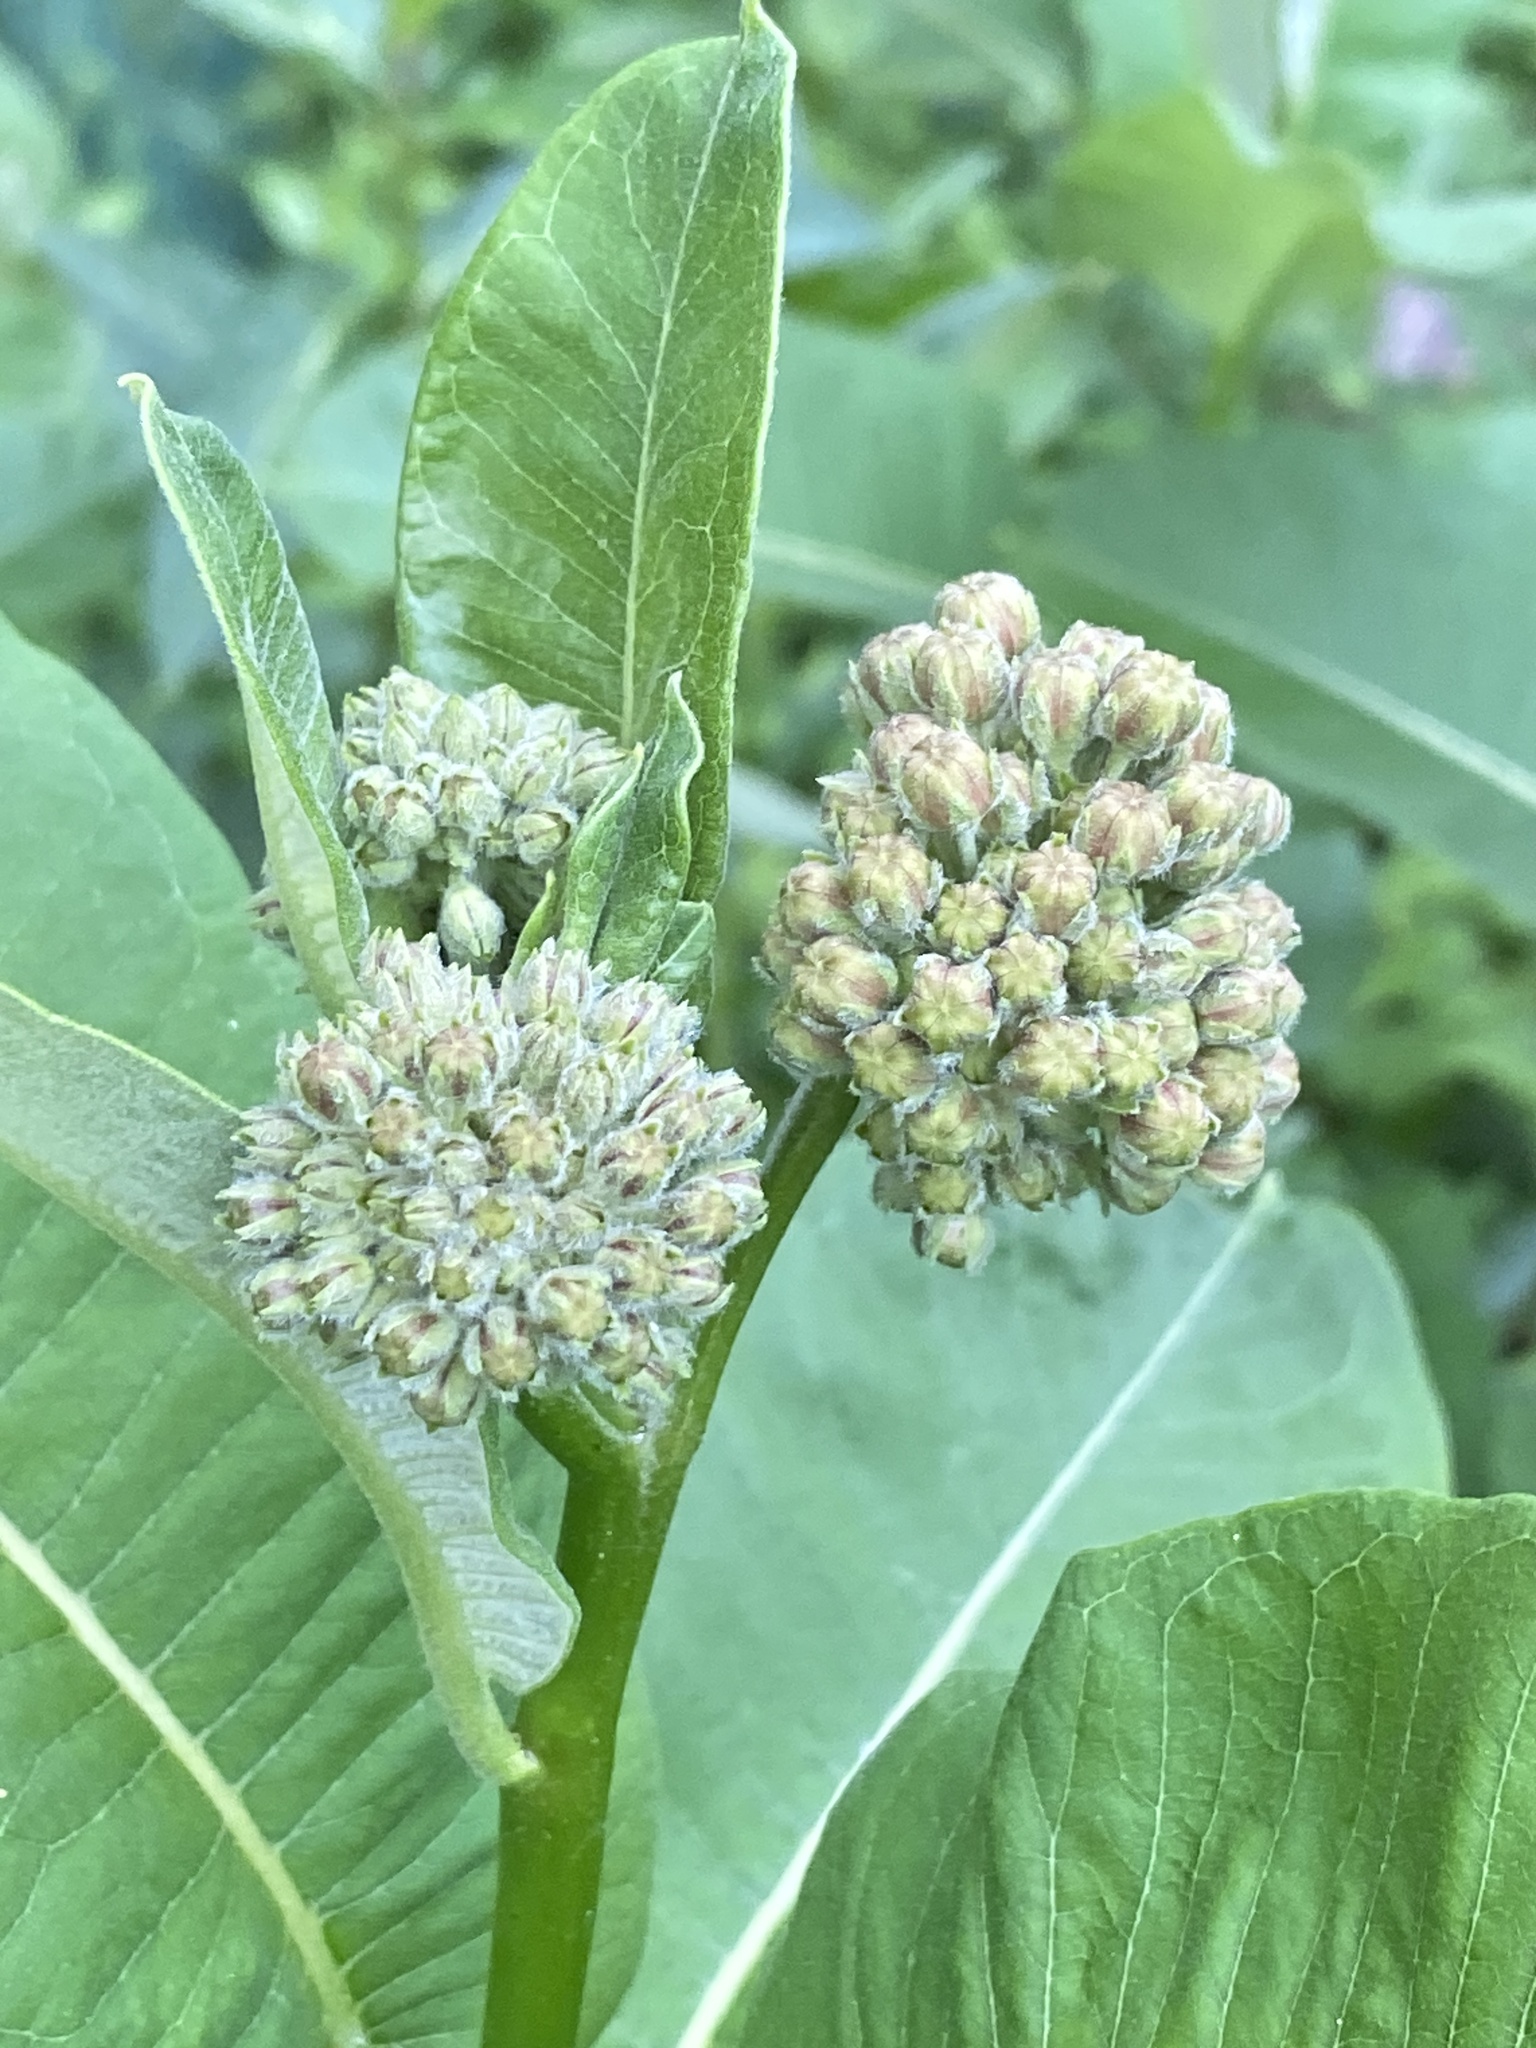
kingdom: Plantae
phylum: Tracheophyta
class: Magnoliopsida
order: Gentianales
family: Apocynaceae
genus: Asclepias
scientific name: Asclepias syriaca
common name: Common milkweed
